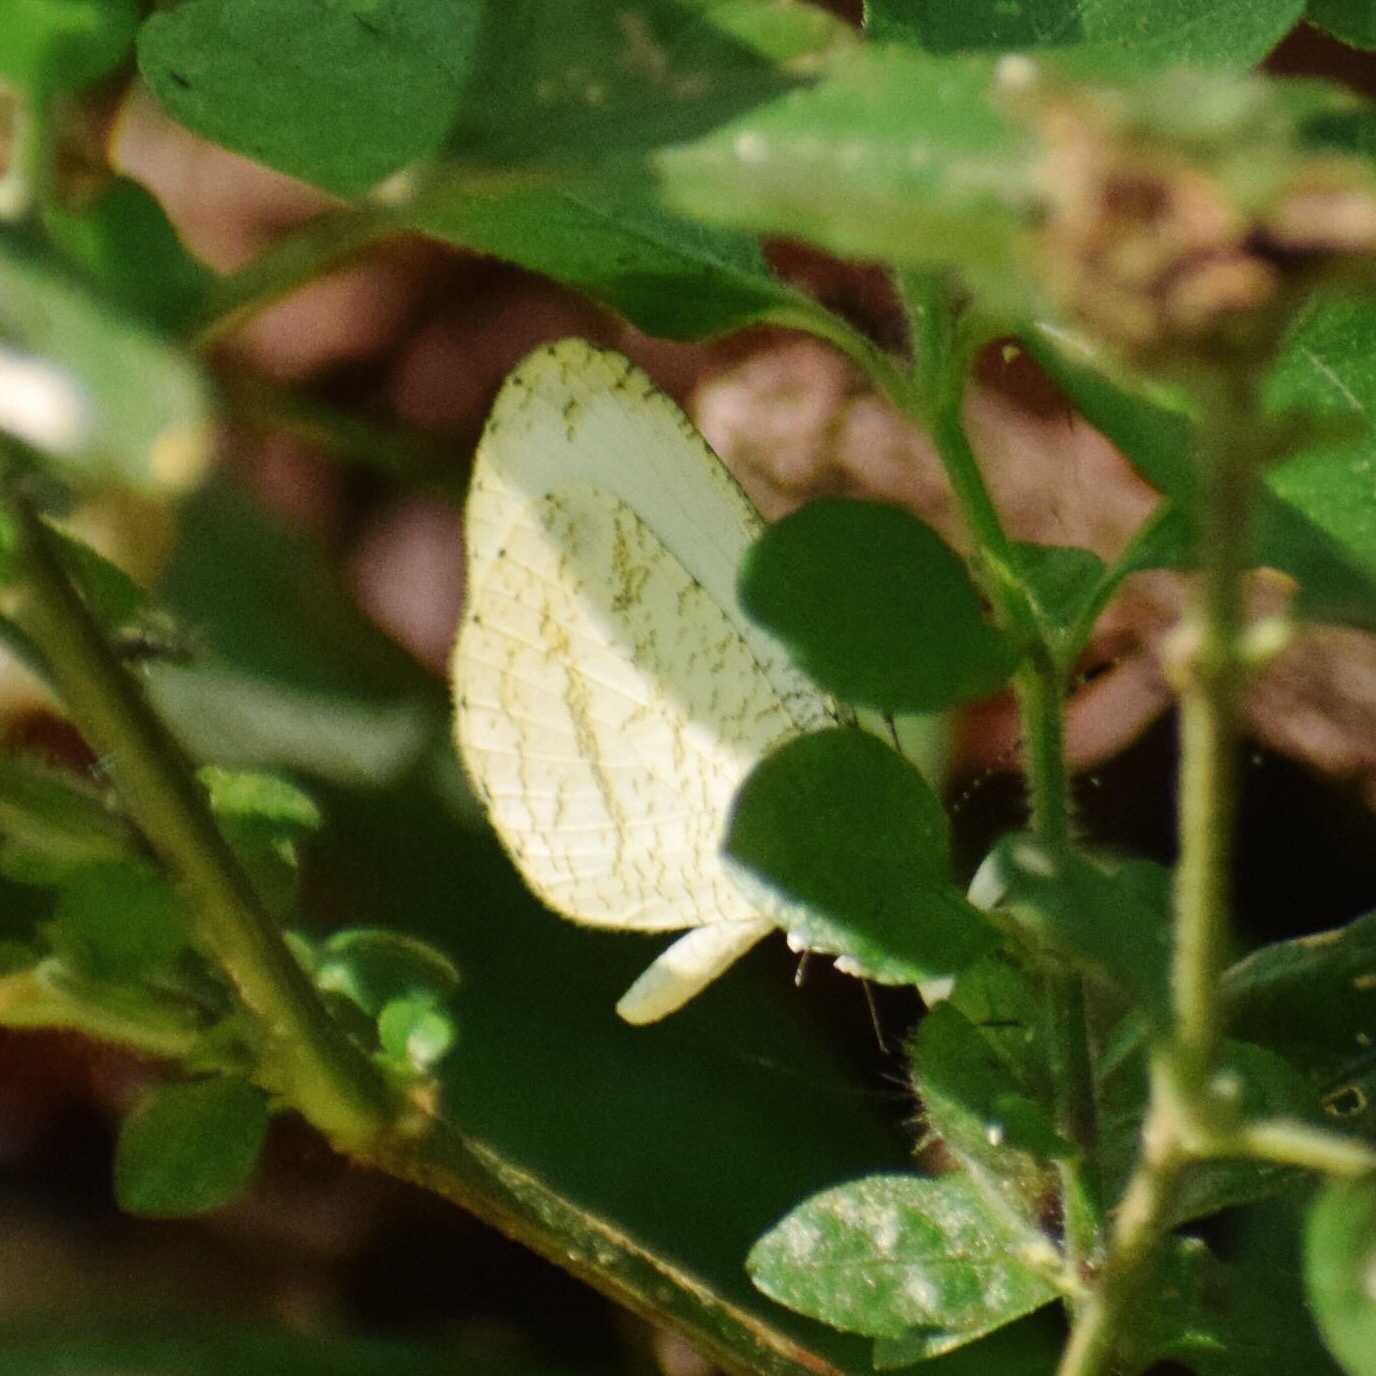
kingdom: Animalia
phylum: Arthropoda
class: Insecta
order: Lepidoptera
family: Pieridae
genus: Leptosia
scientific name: Leptosia alcesta
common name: African wood white
